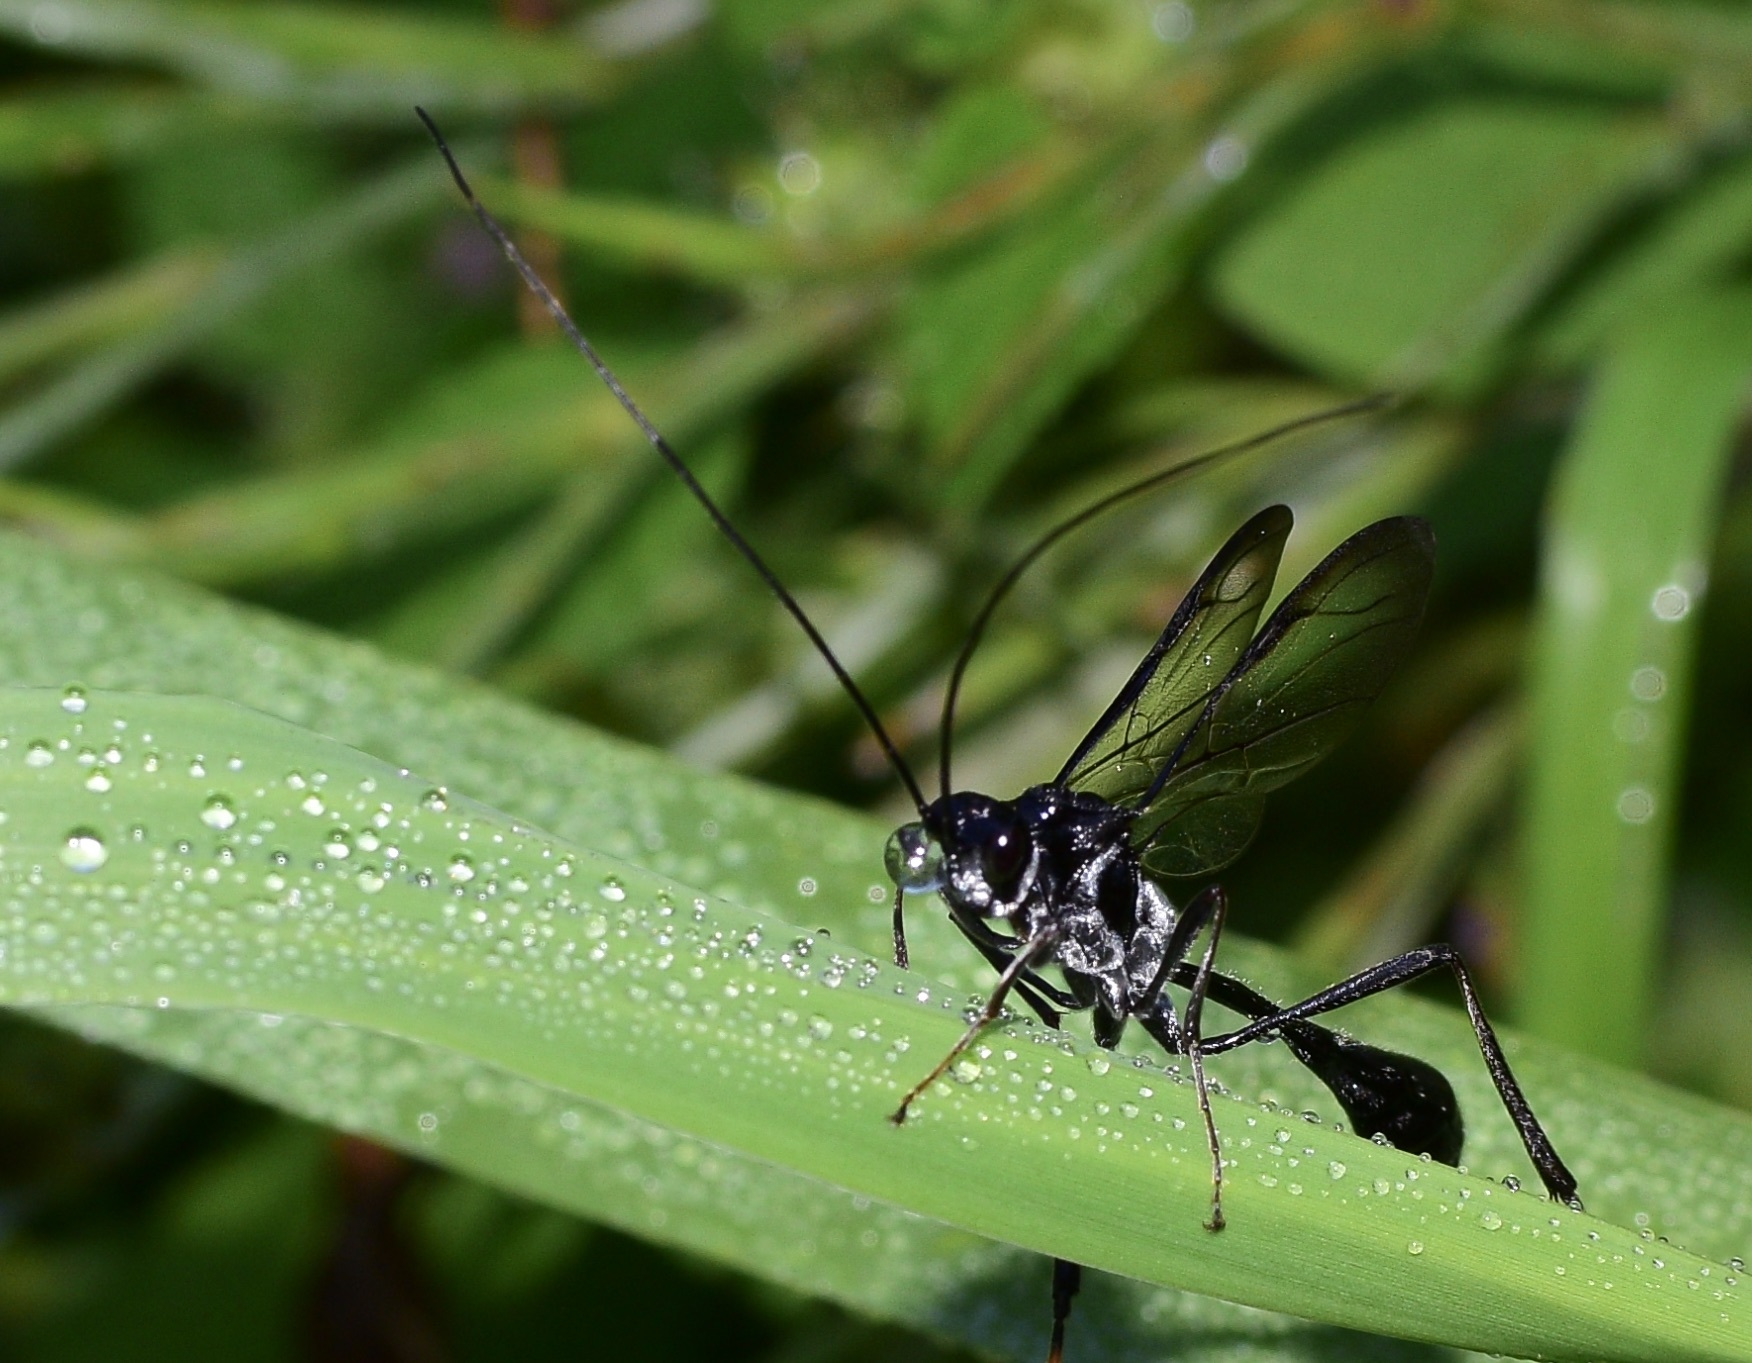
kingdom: Animalia
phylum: Arthropoda
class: Insecta
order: Hymenoptera
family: Pelecinidae
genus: Pelecinus
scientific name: Pelecinus polyturator
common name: American pelecinid wasp
